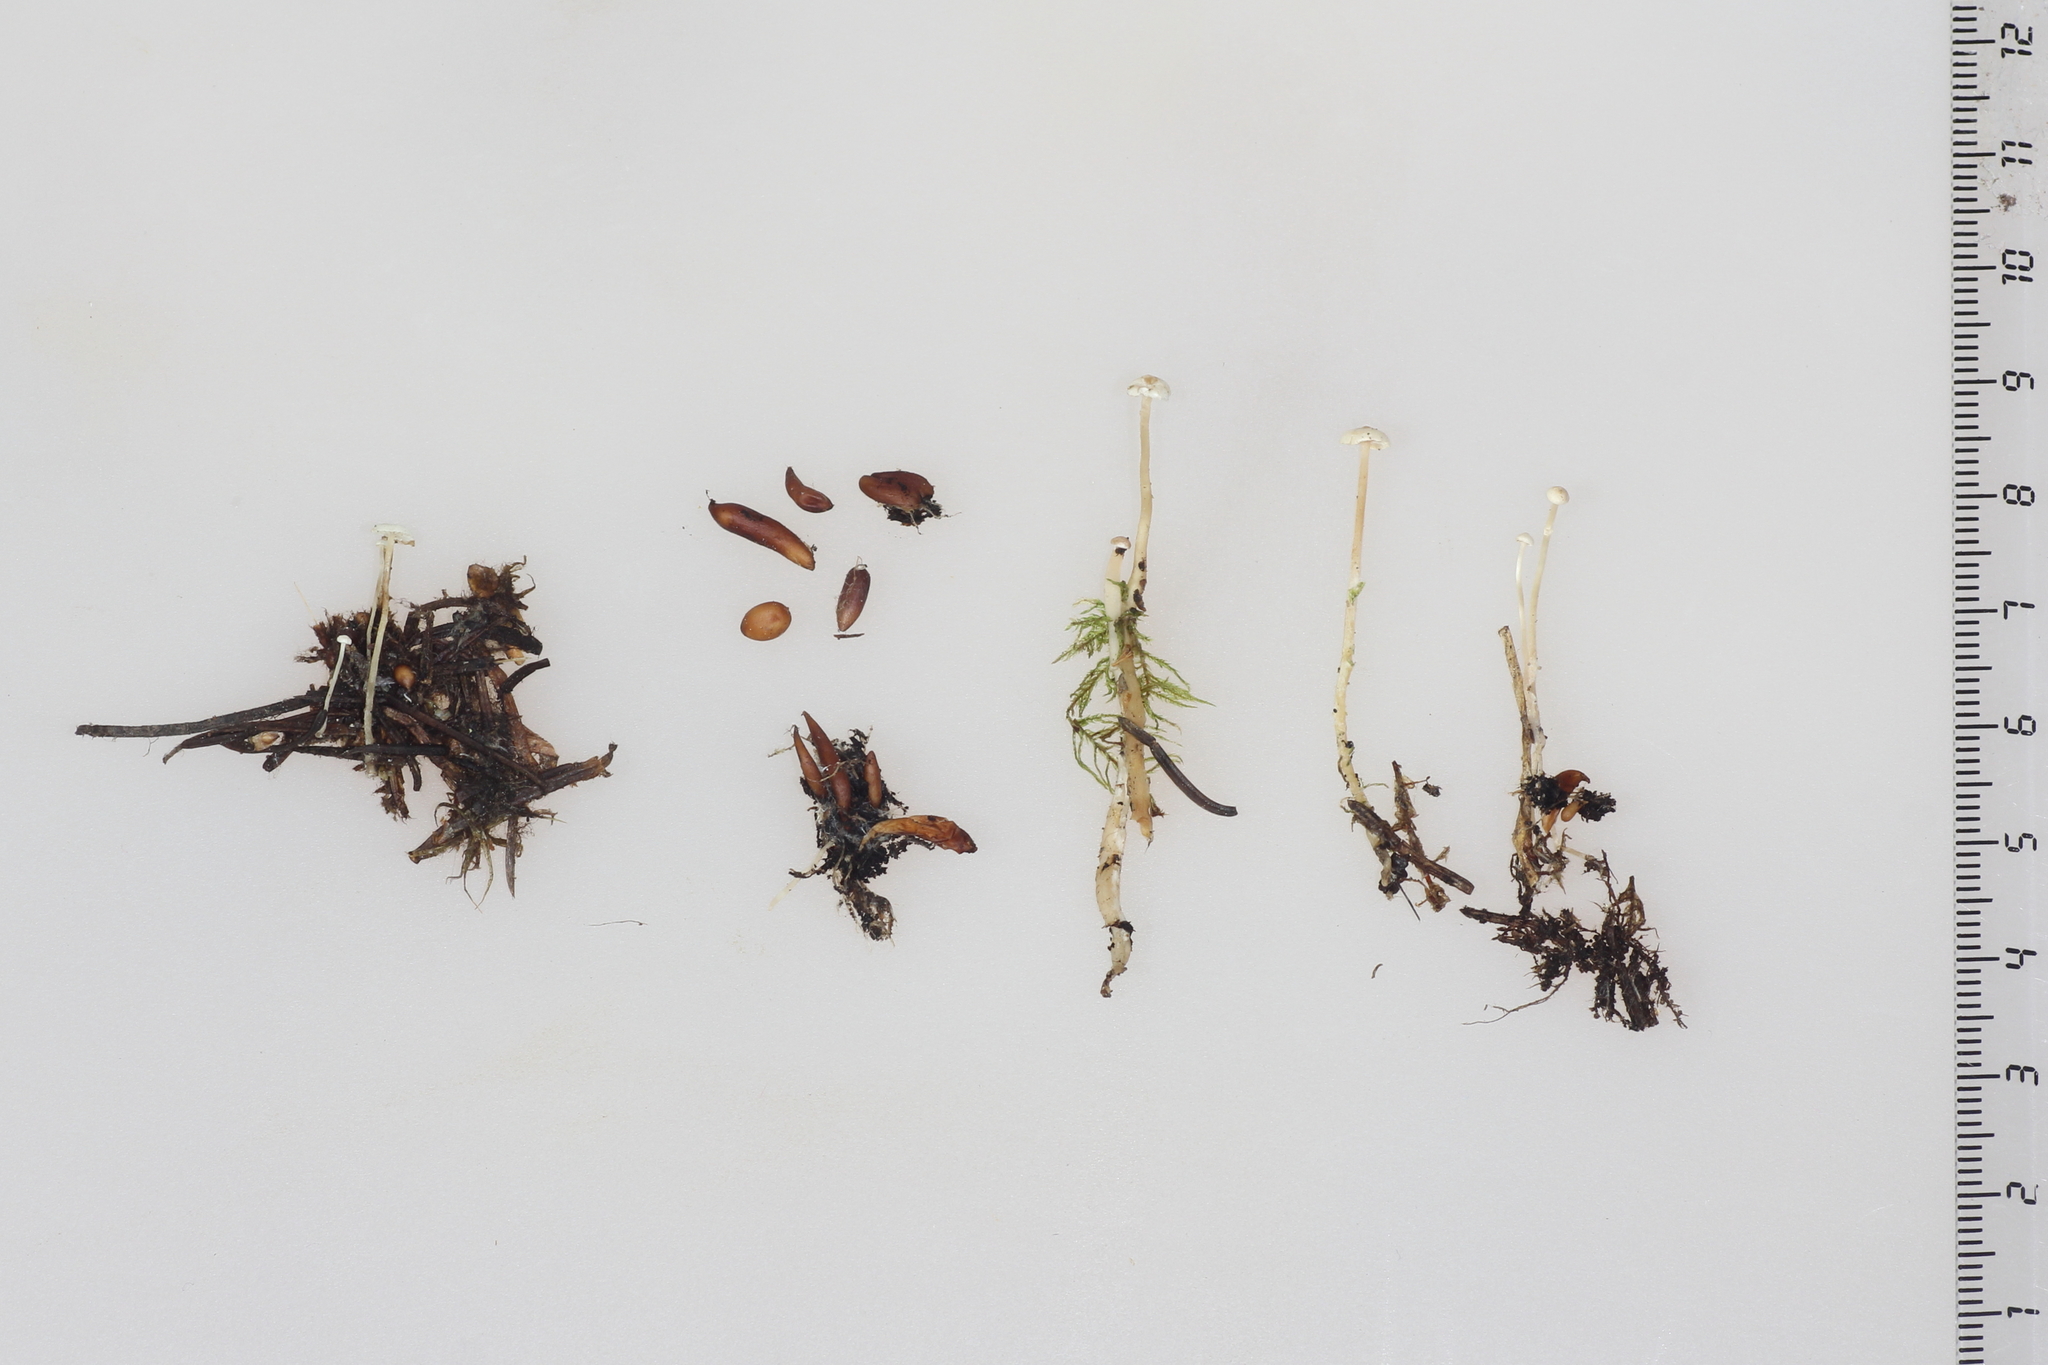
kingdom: Fungi
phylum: Basidiomycota
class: Agaricomycetes
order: Agaricales
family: Tricholomataceae
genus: Collybia
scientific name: Collybia tuberosa
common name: Lentil shanklet
